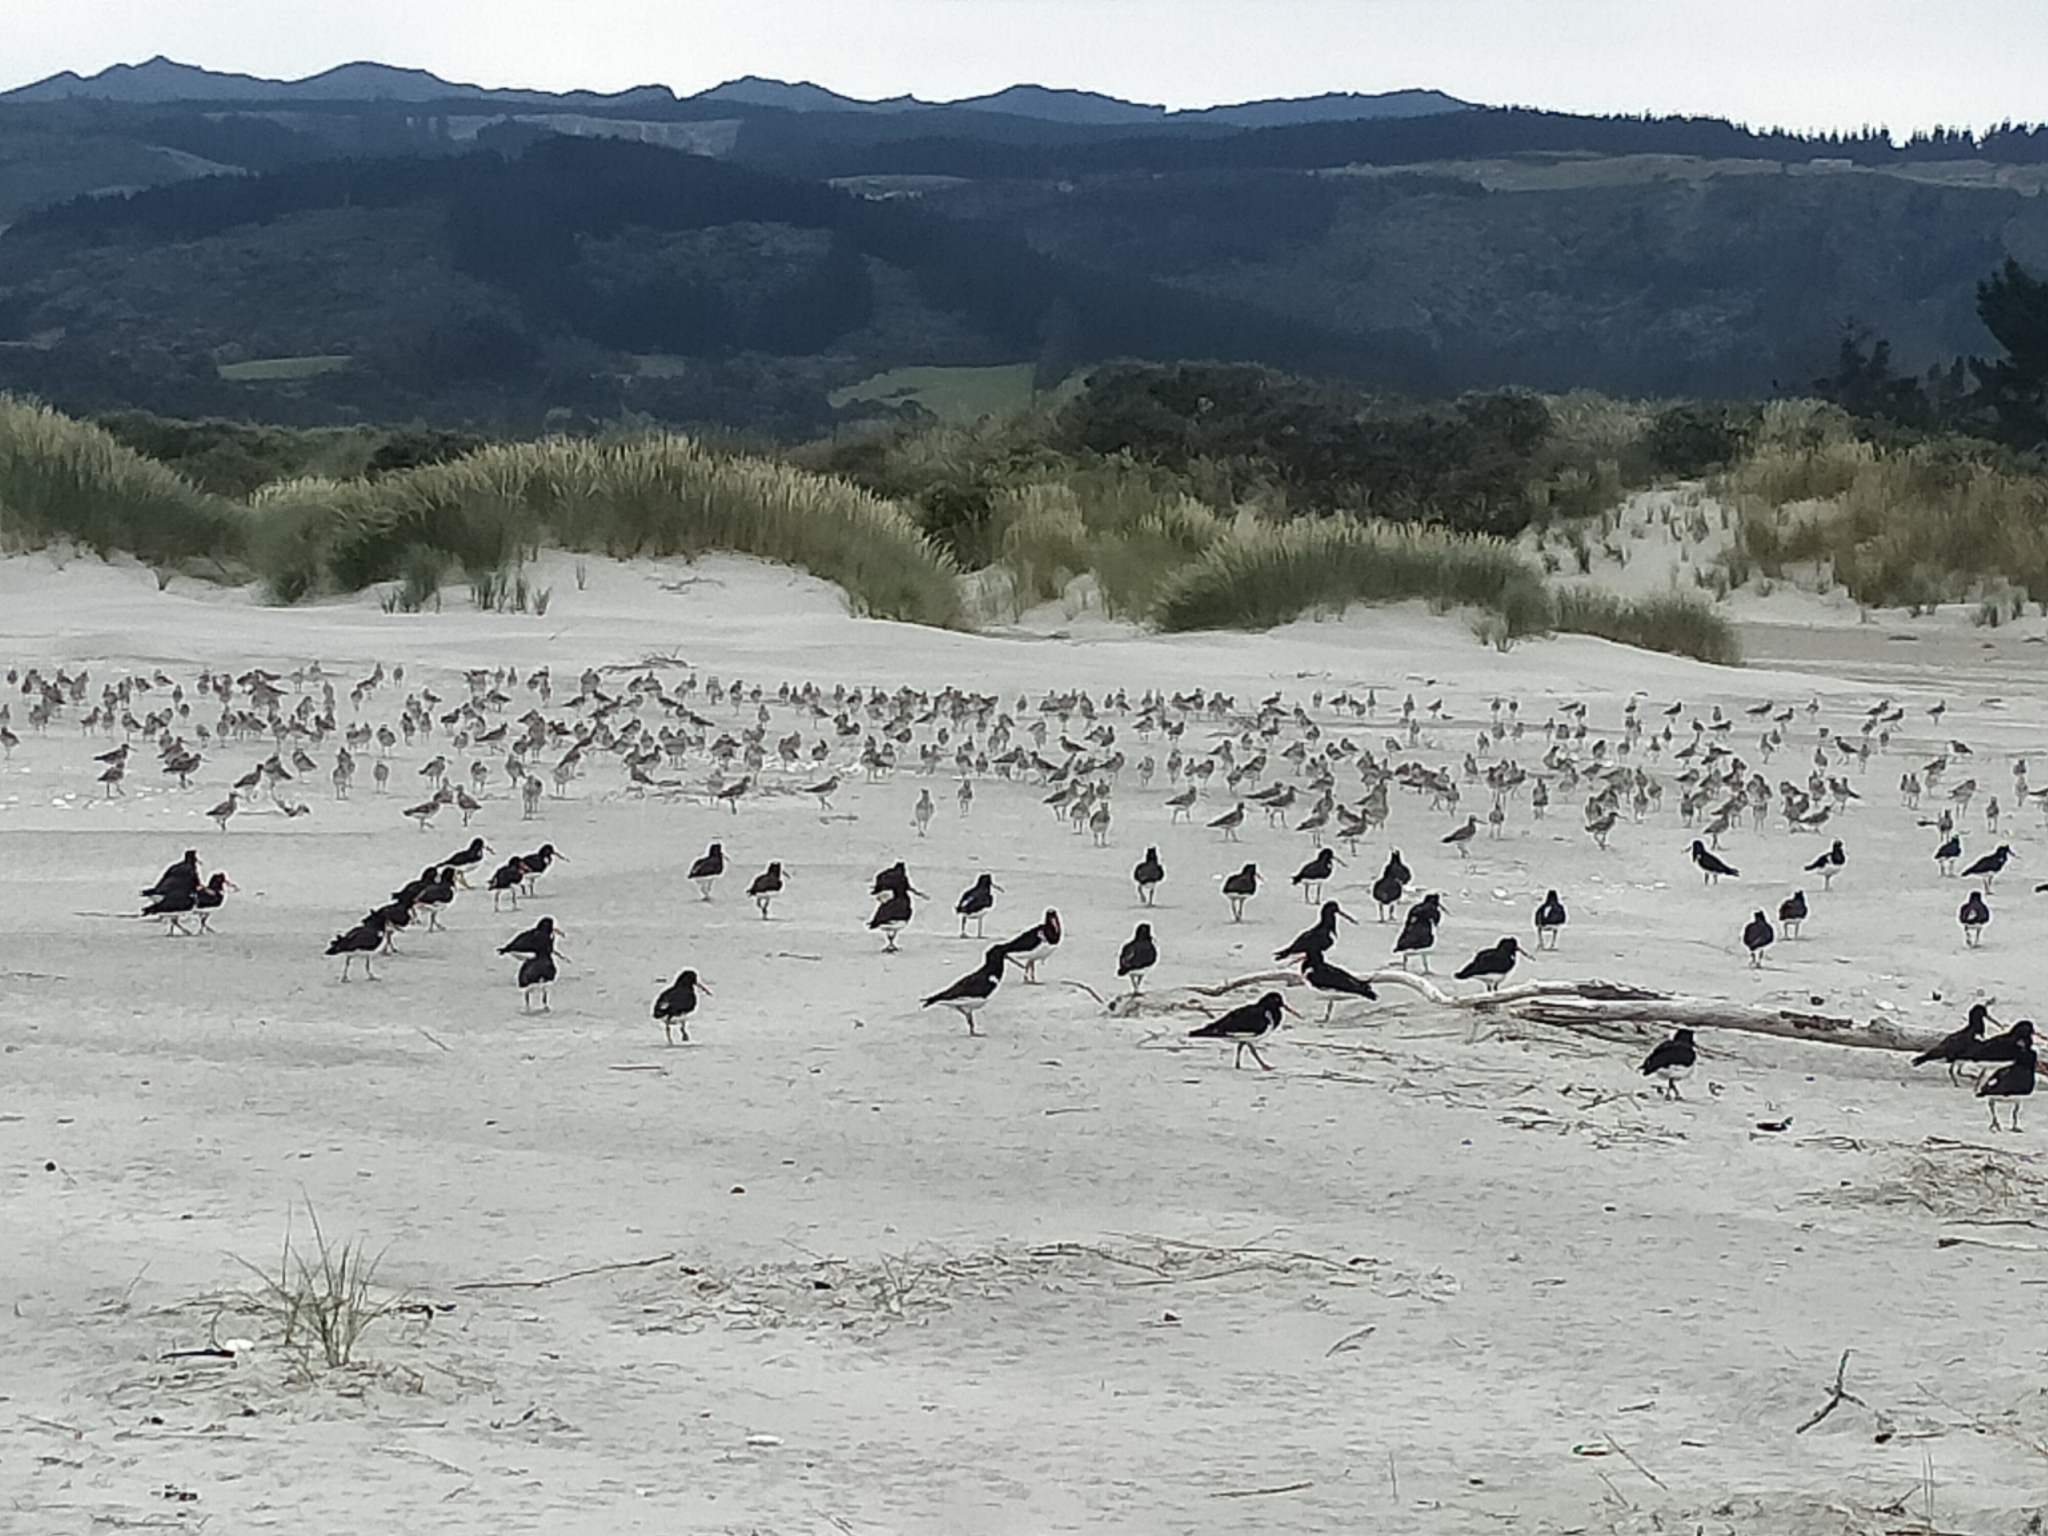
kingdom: Animalia
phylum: Chordata
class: Aves
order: Charadriiformes
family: Scolopacidae
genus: Limosa
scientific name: Limosa lapponica
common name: Bar-tailed godwit
